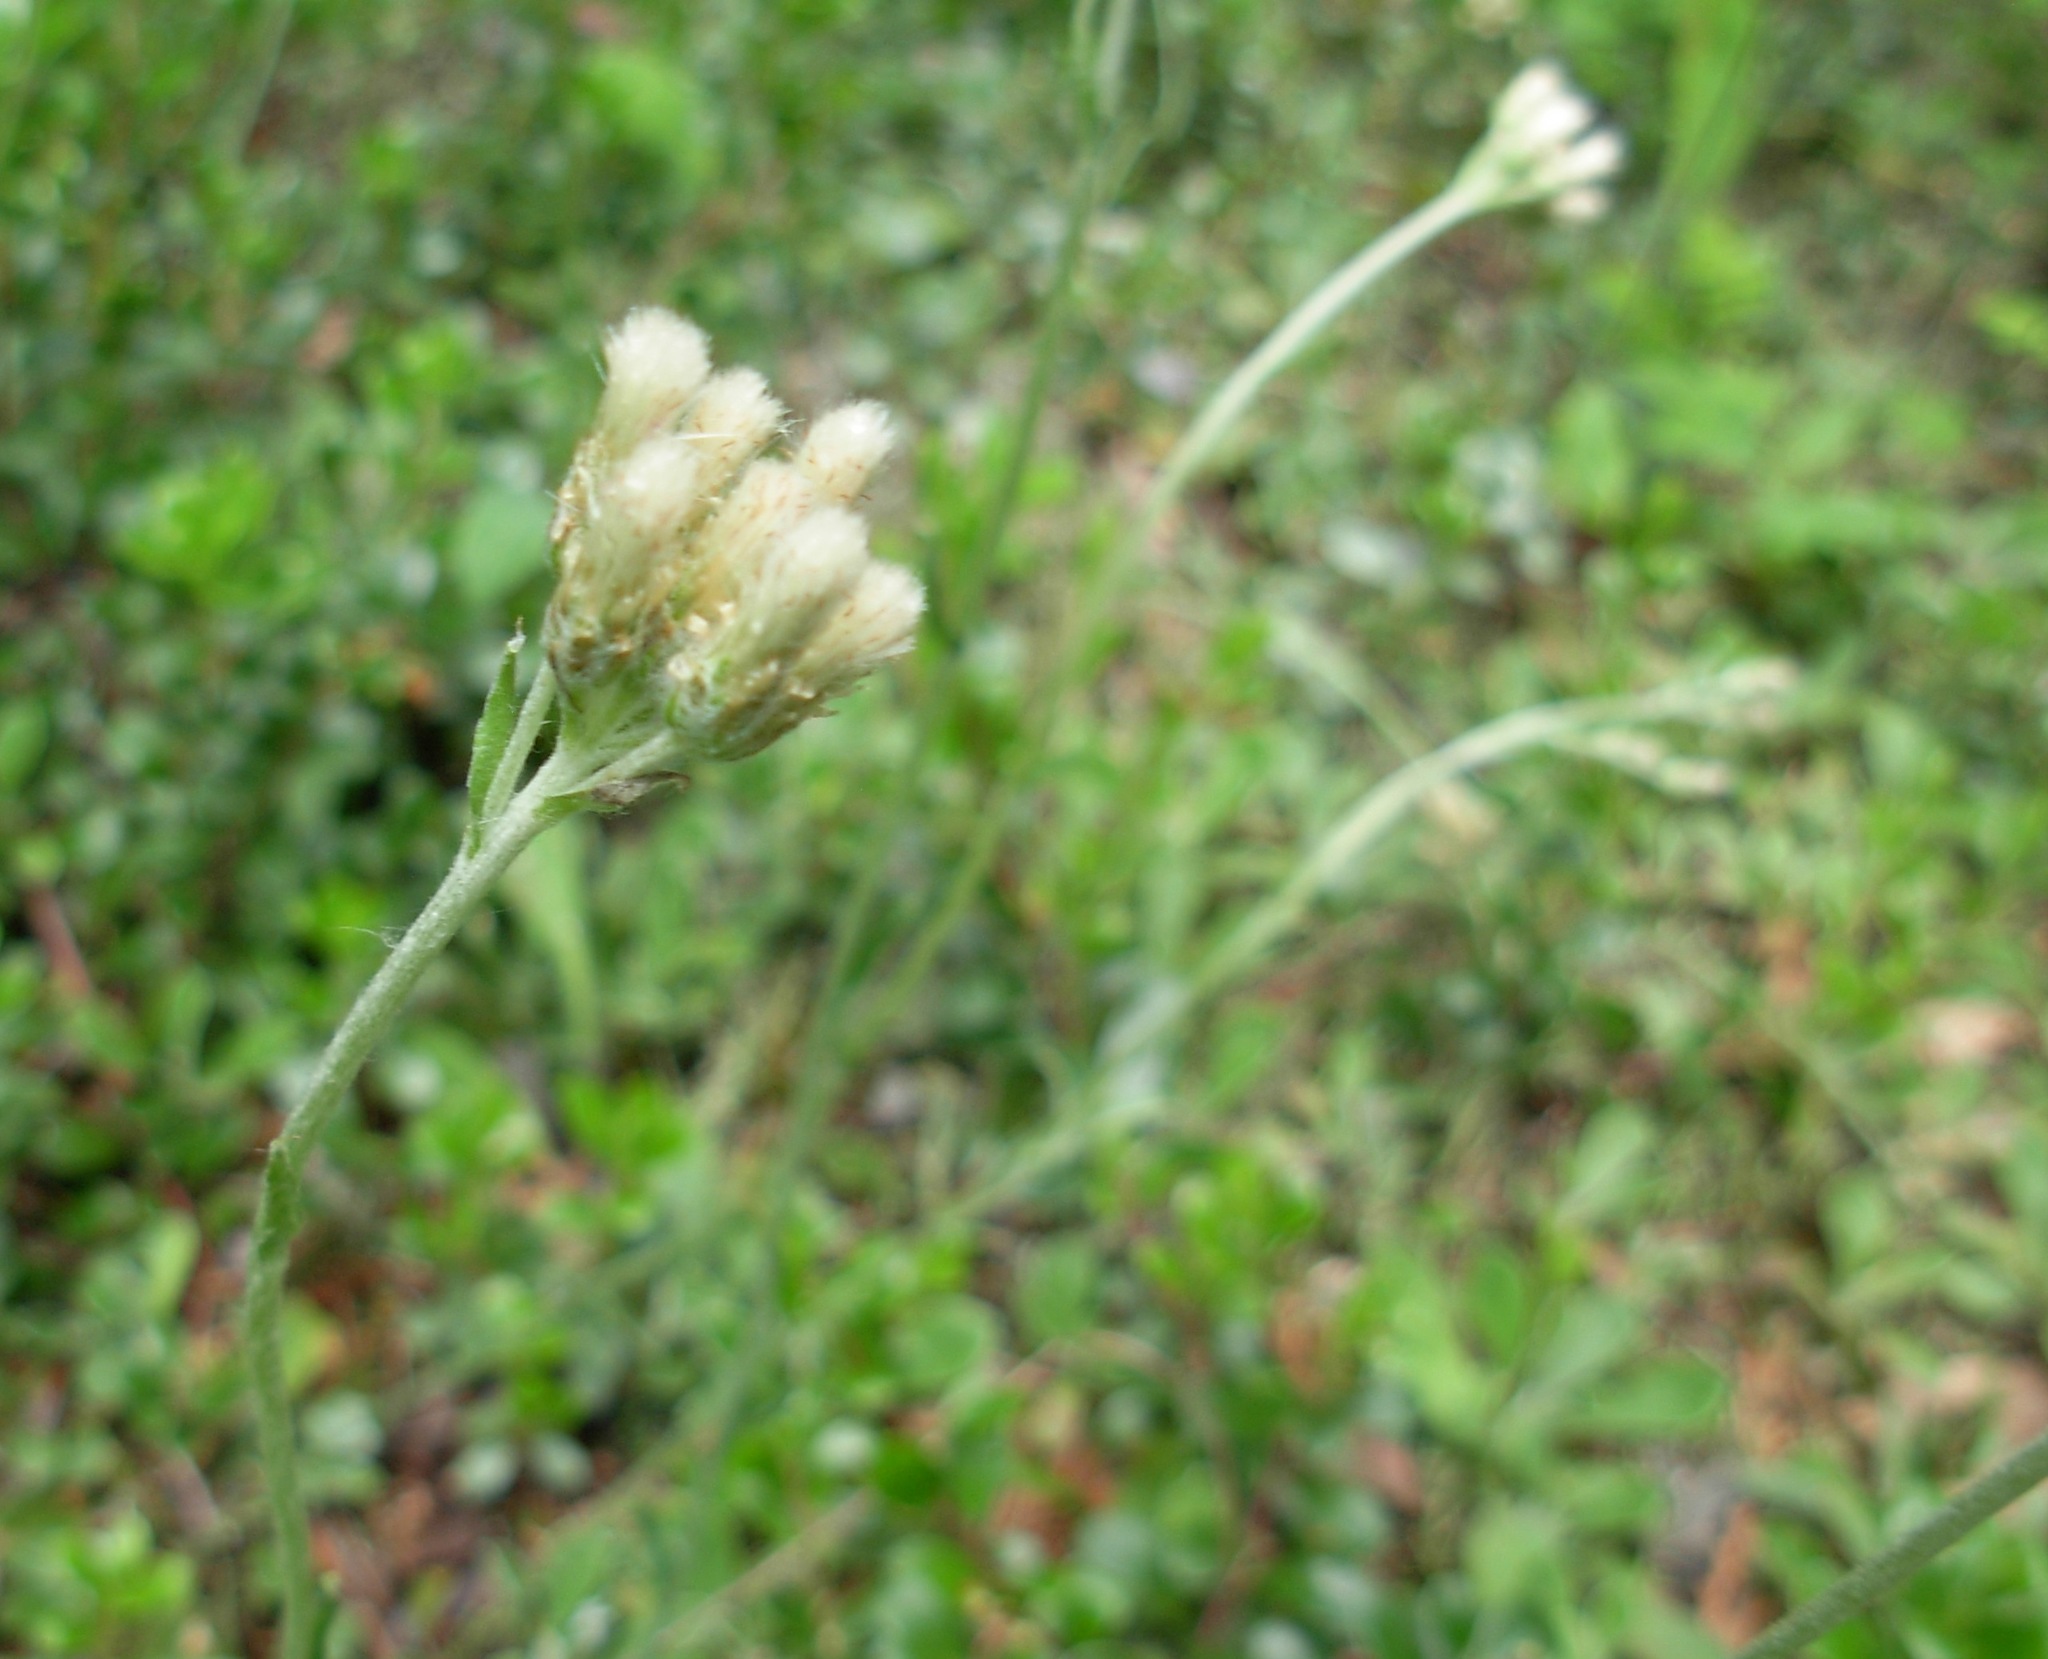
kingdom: Plantae
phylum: Tracheophyta
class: Magnoliopsida
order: Asterales
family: Asteraceae
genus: Antennaria
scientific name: Antennaria howellii
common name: Howell's pussytoes
